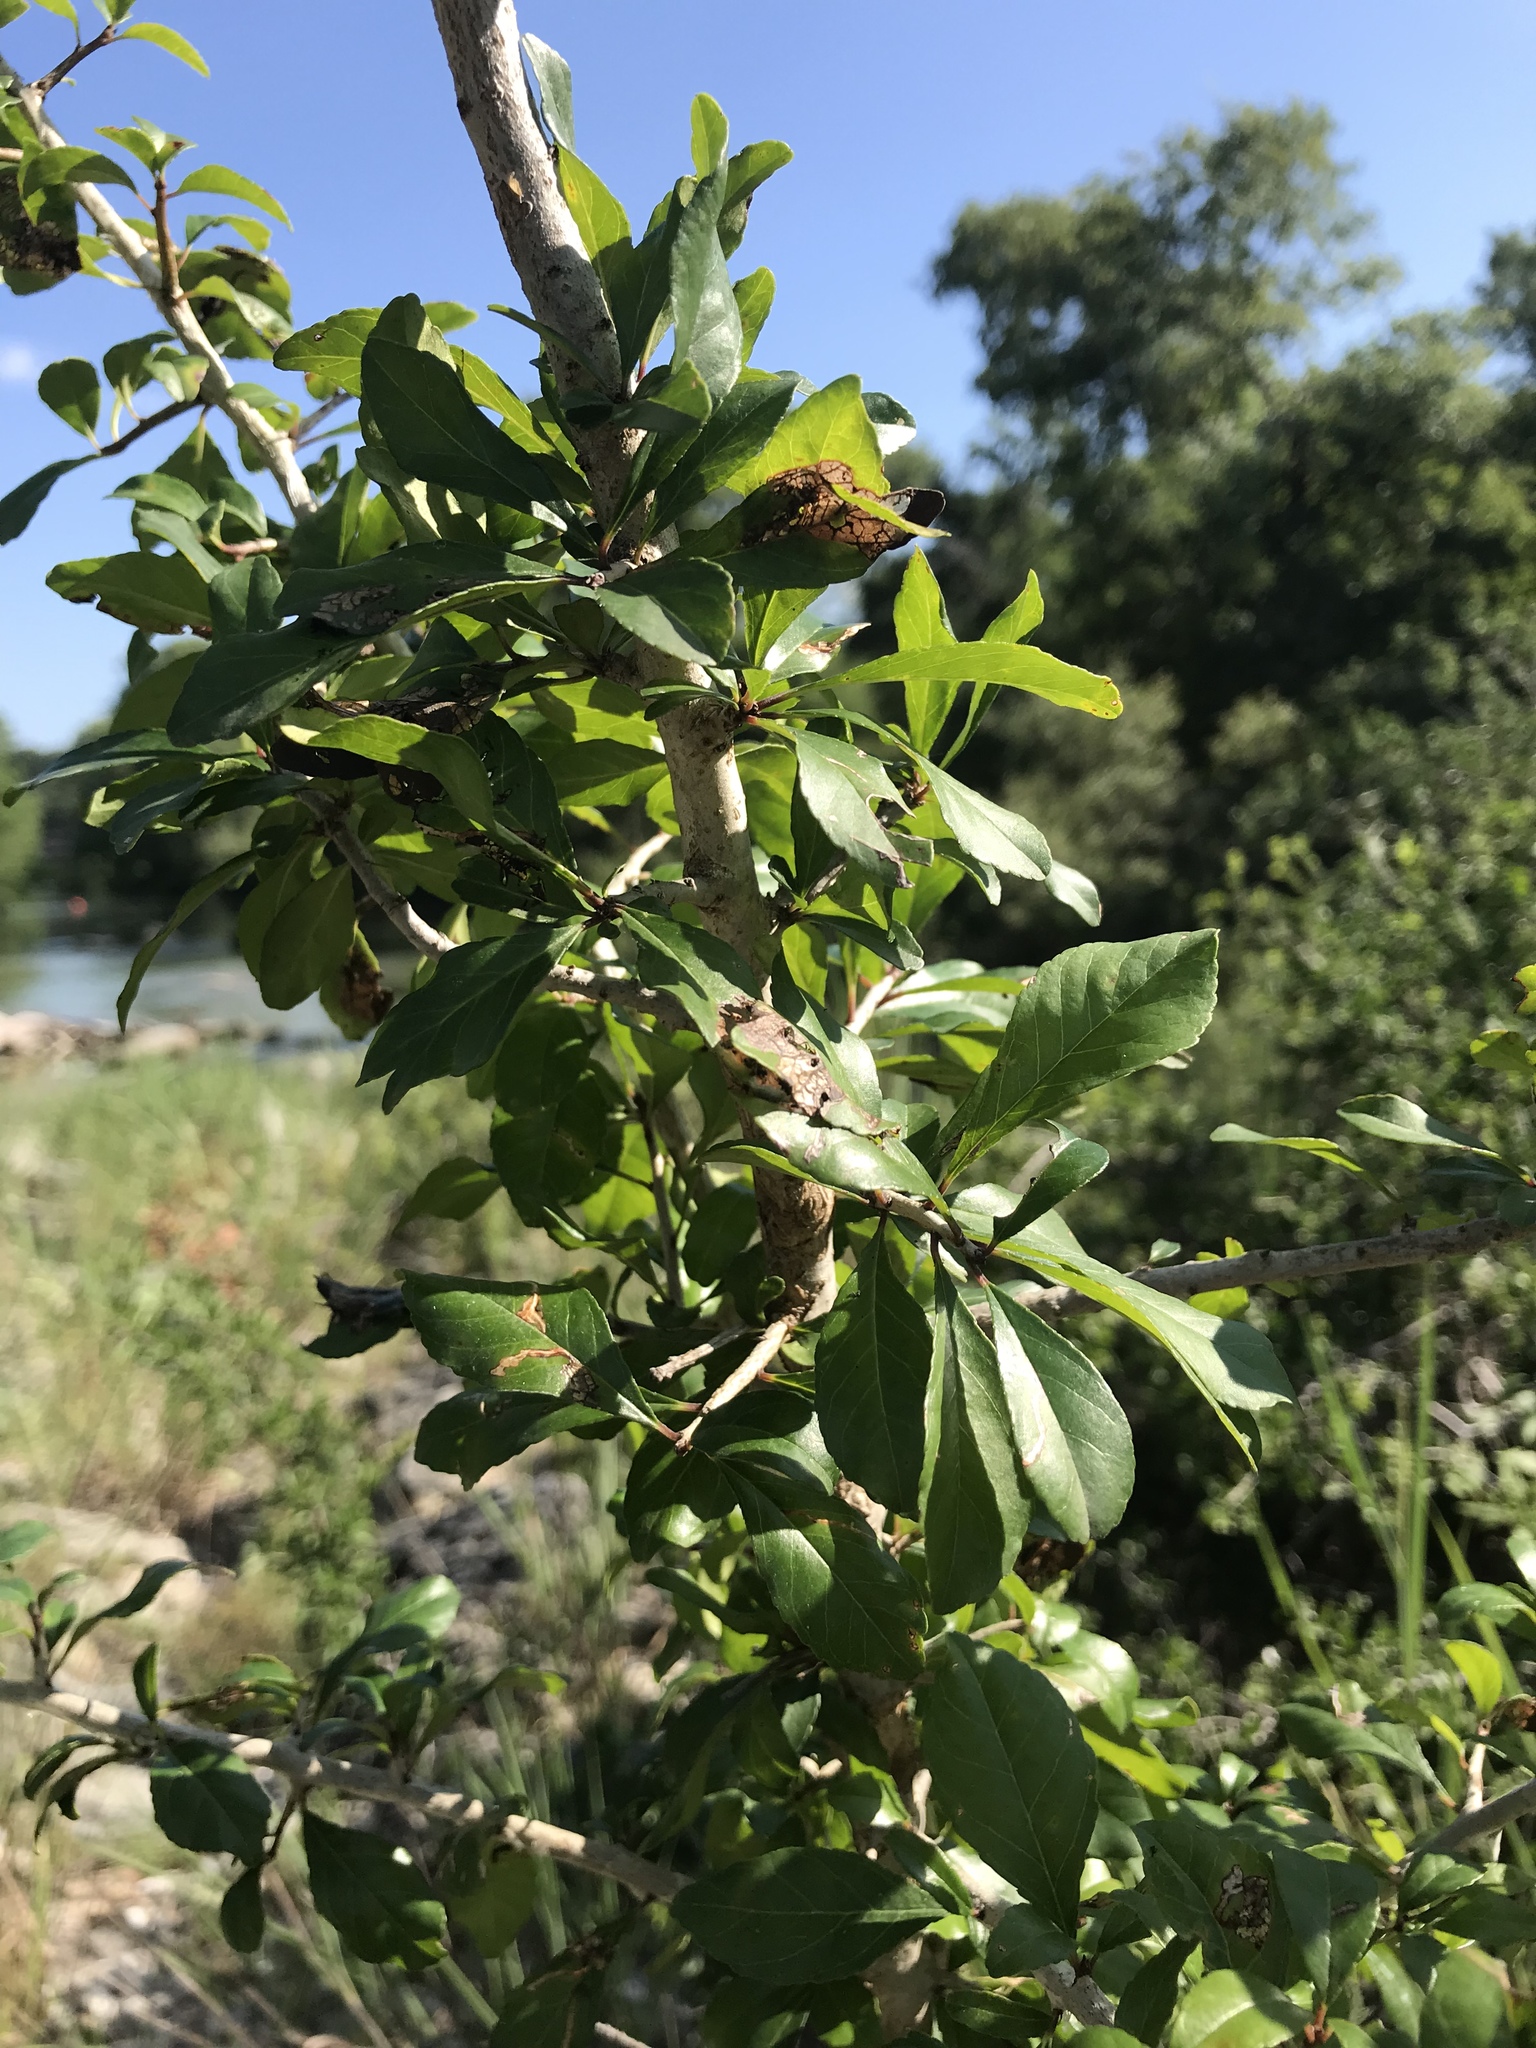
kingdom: Plantae
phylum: Tracheophyta
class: Magnoliopsida
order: Aquifoliales
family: Aquifoliaceae
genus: Ilex
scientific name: Ilex decidua
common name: Possum-haw
